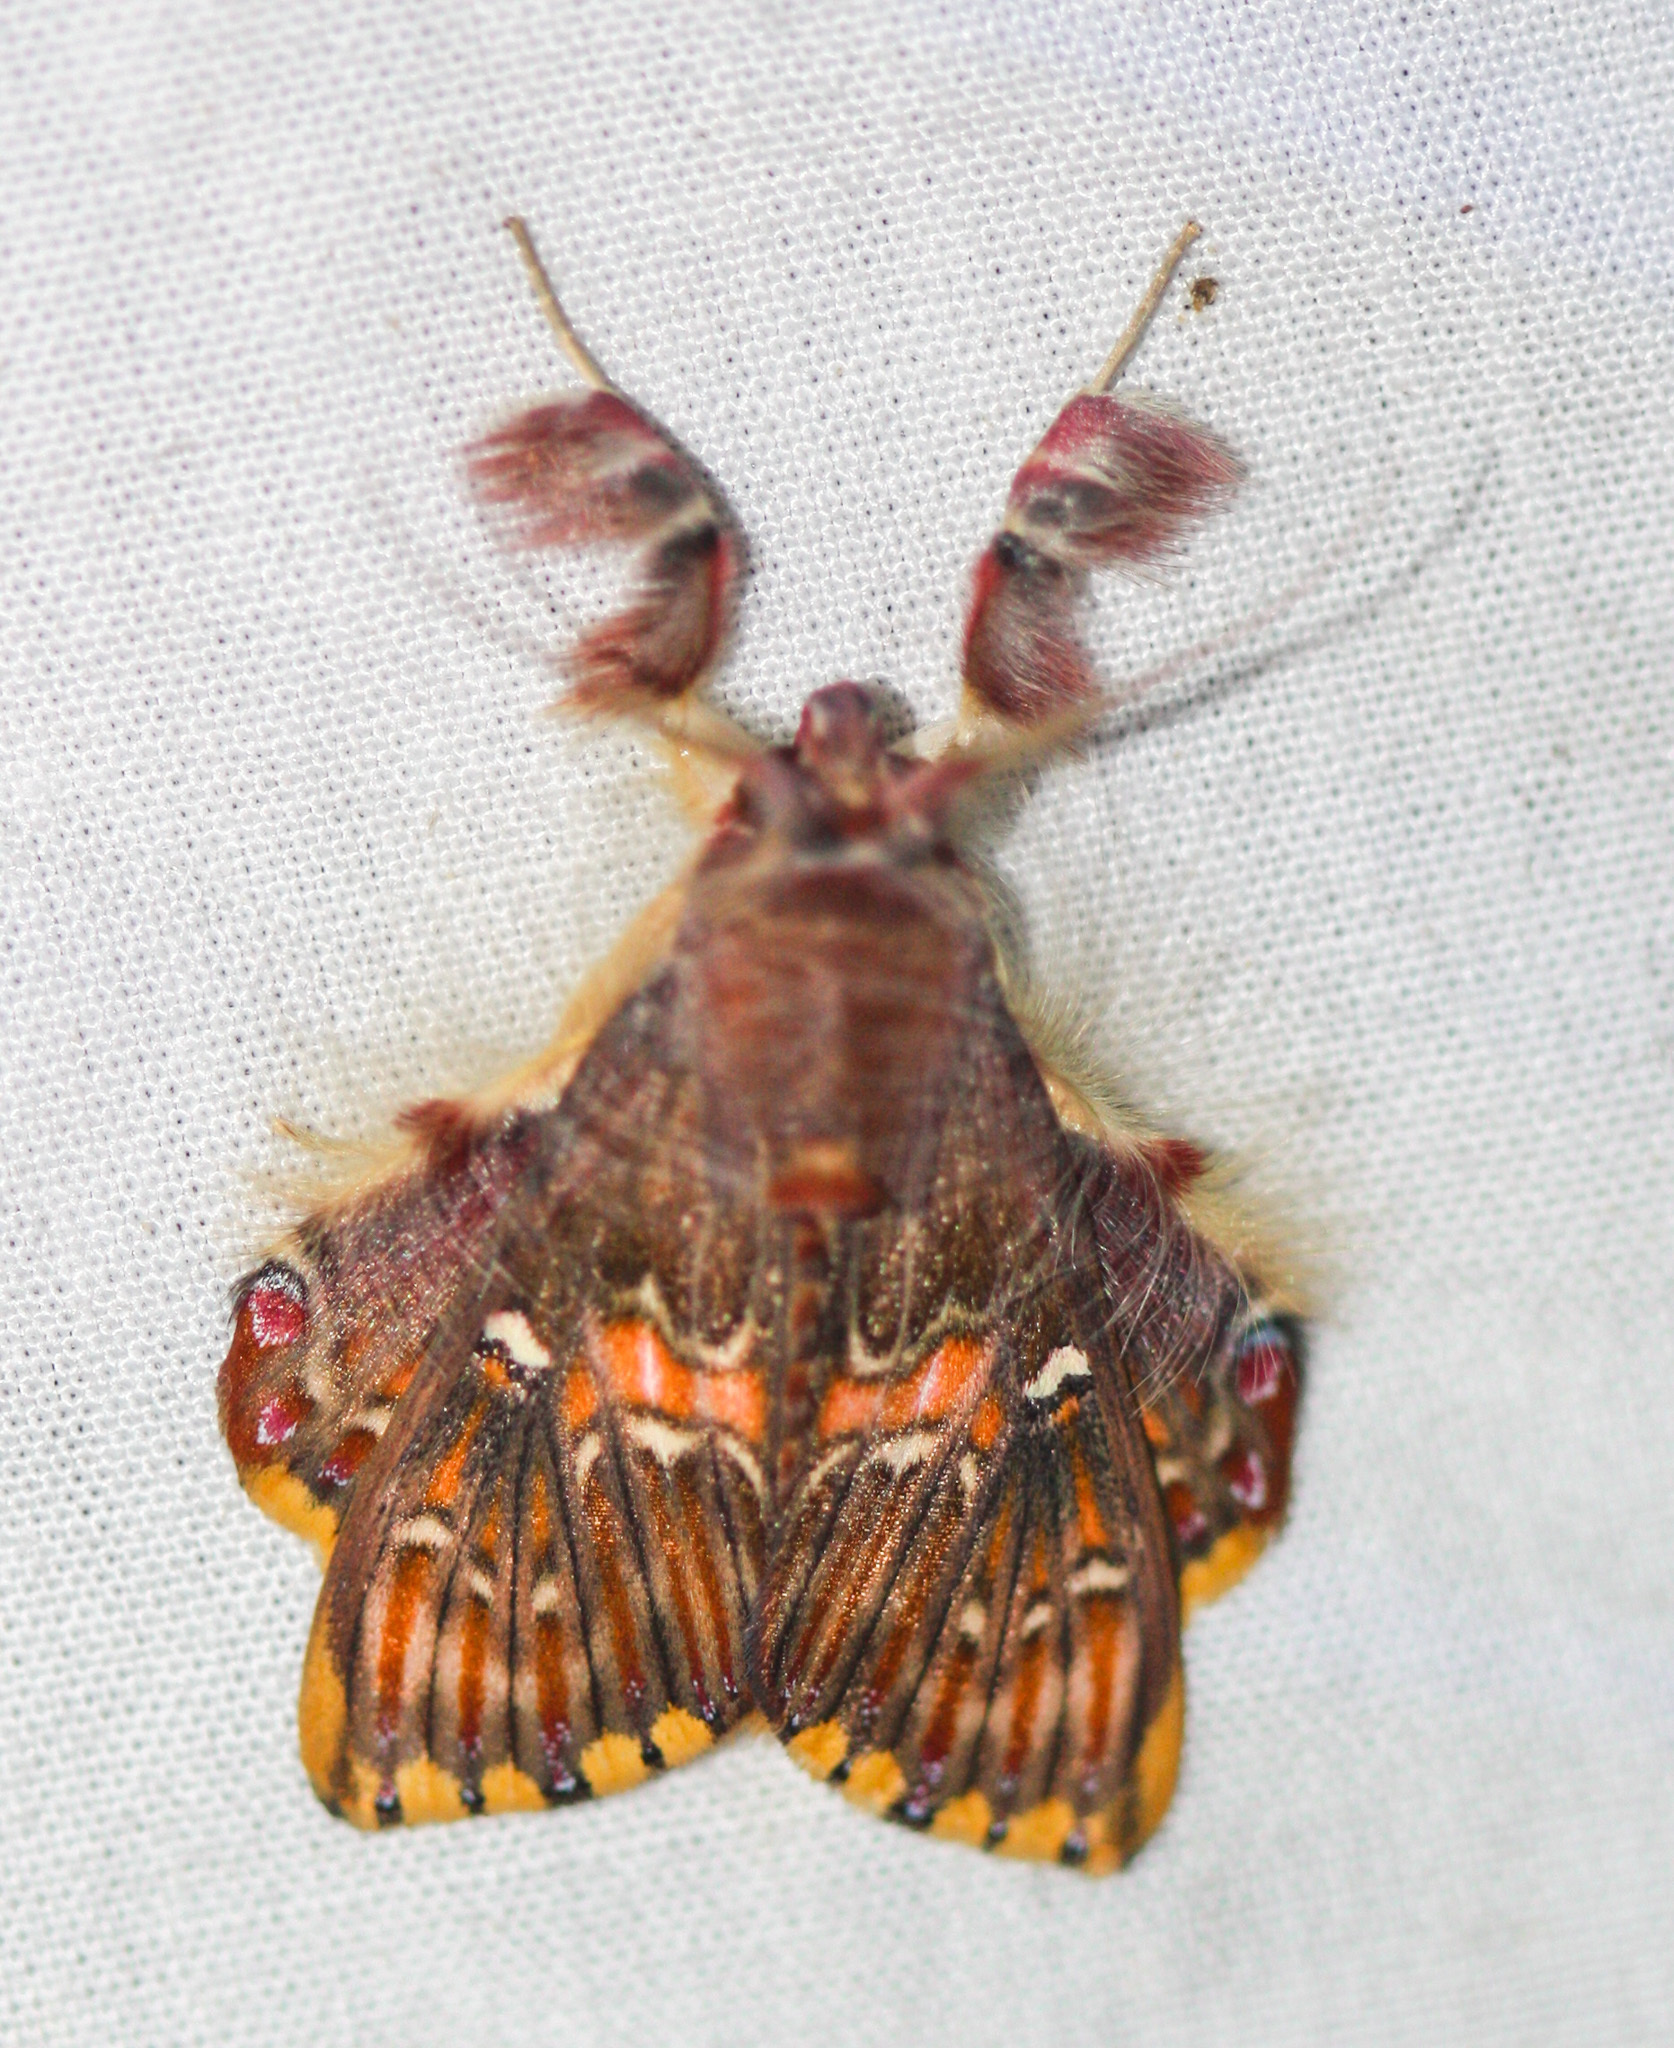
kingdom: Animalia
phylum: Arthropoda
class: Insecta
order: Lepidoptera
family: Erebidae
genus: Sosxetra
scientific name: Sosxetra grata
